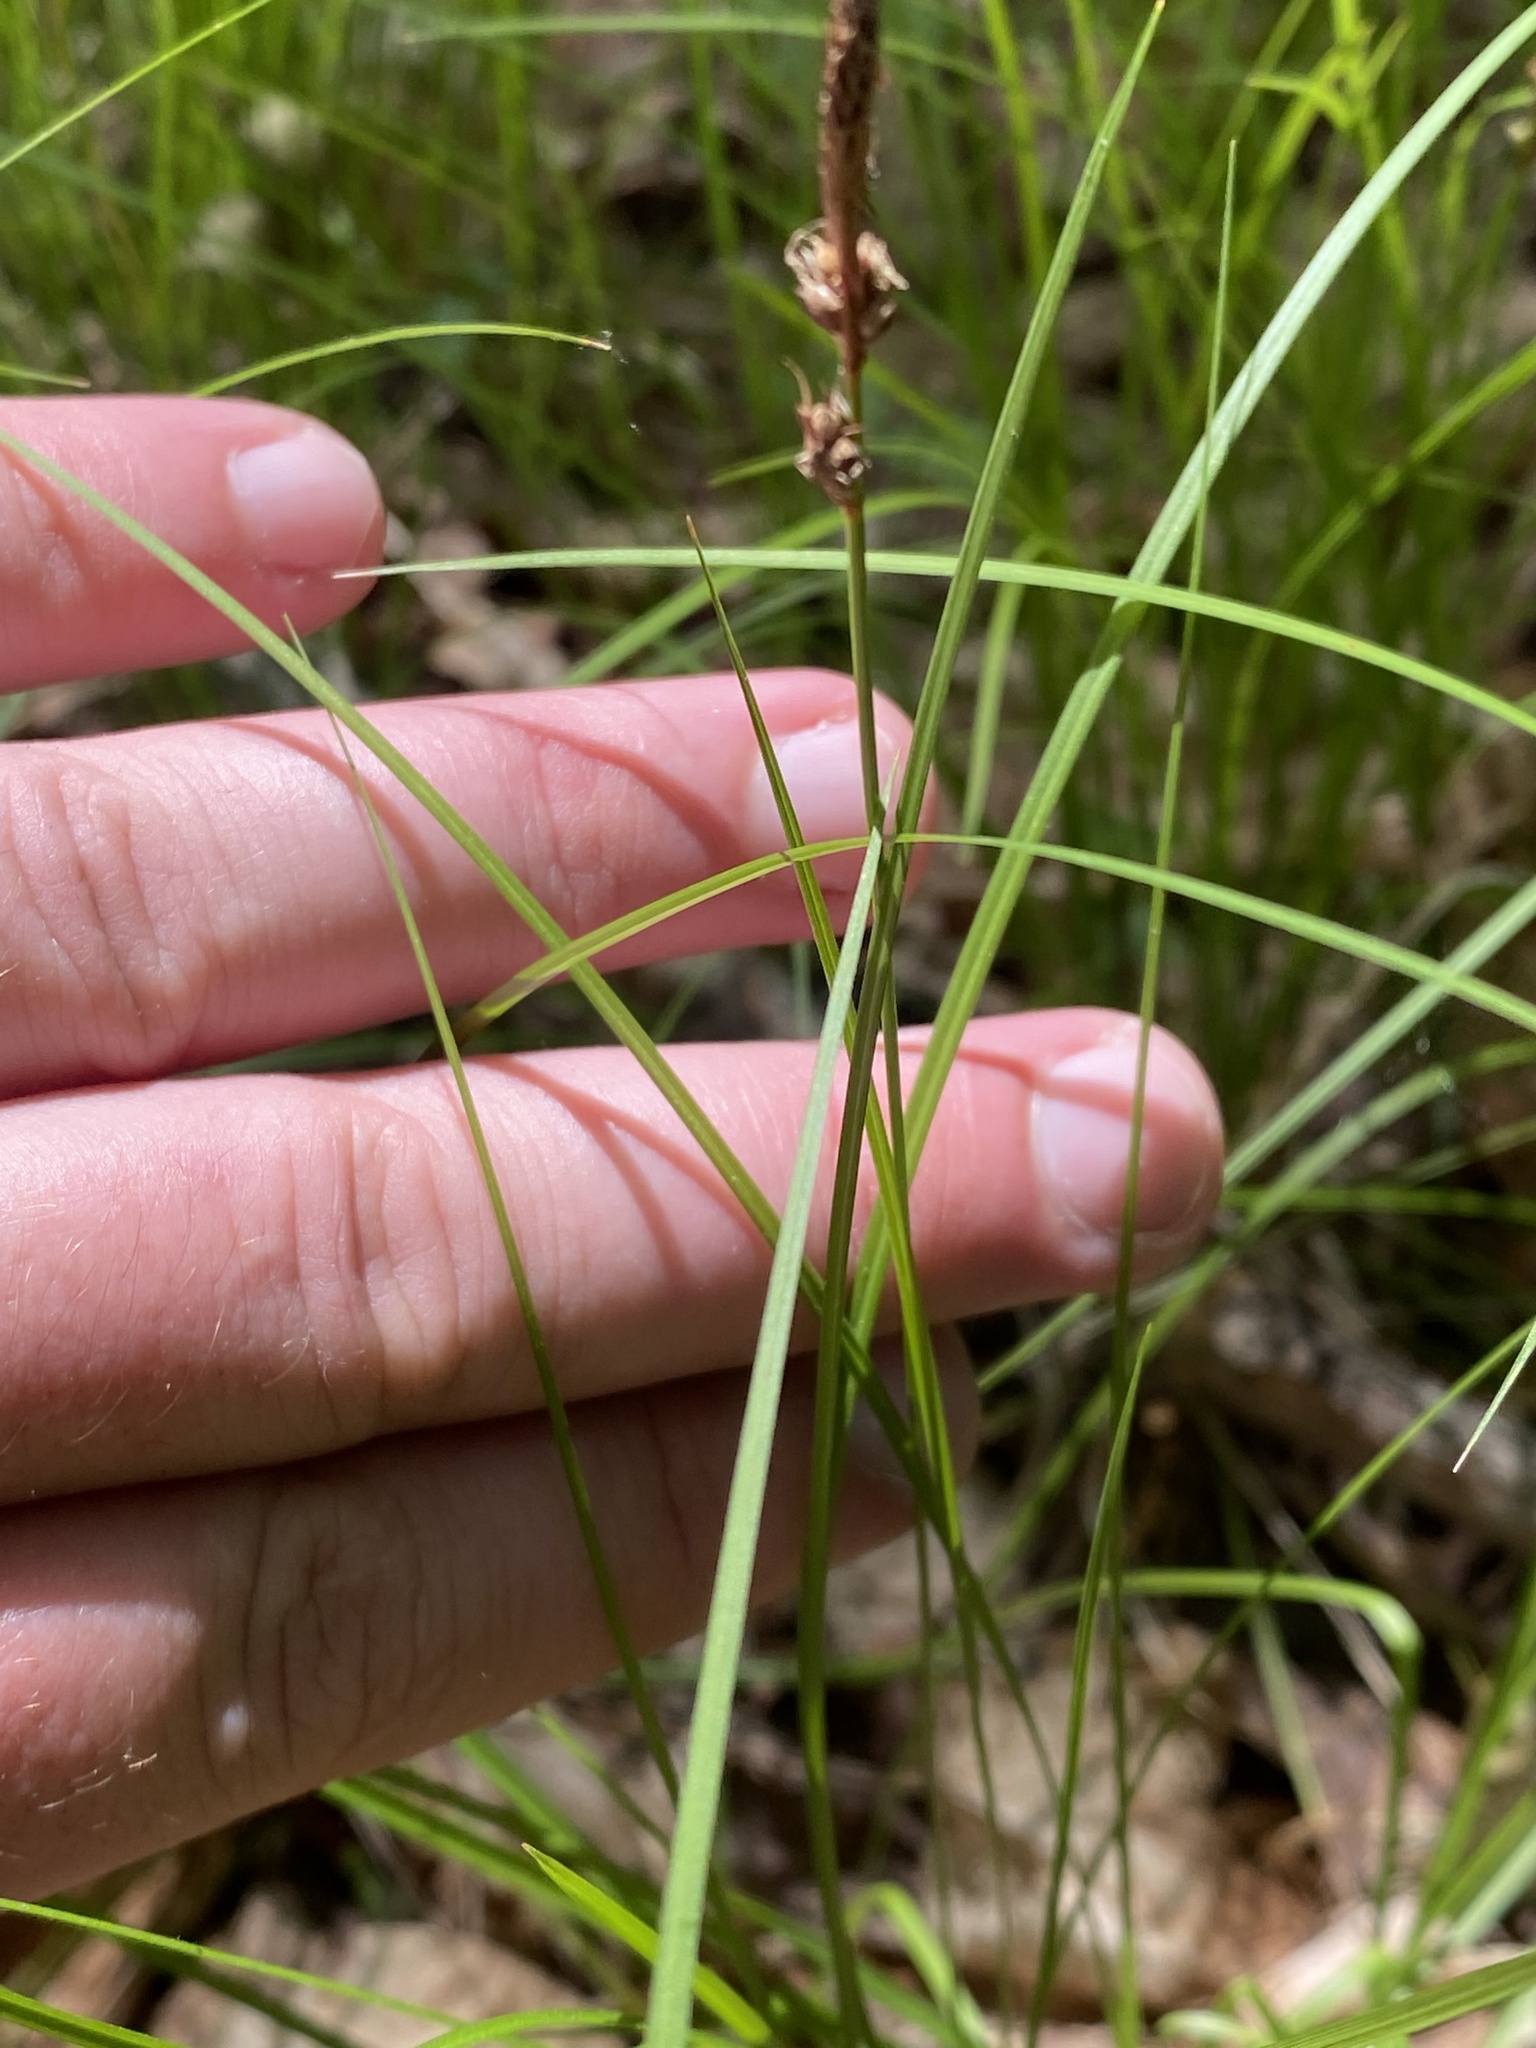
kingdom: Plantae
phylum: Tracheophyta
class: Liliopsida
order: Poales
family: Cyperaceae
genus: Carex
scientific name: Carex pensylvanica
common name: Common oak sedge
